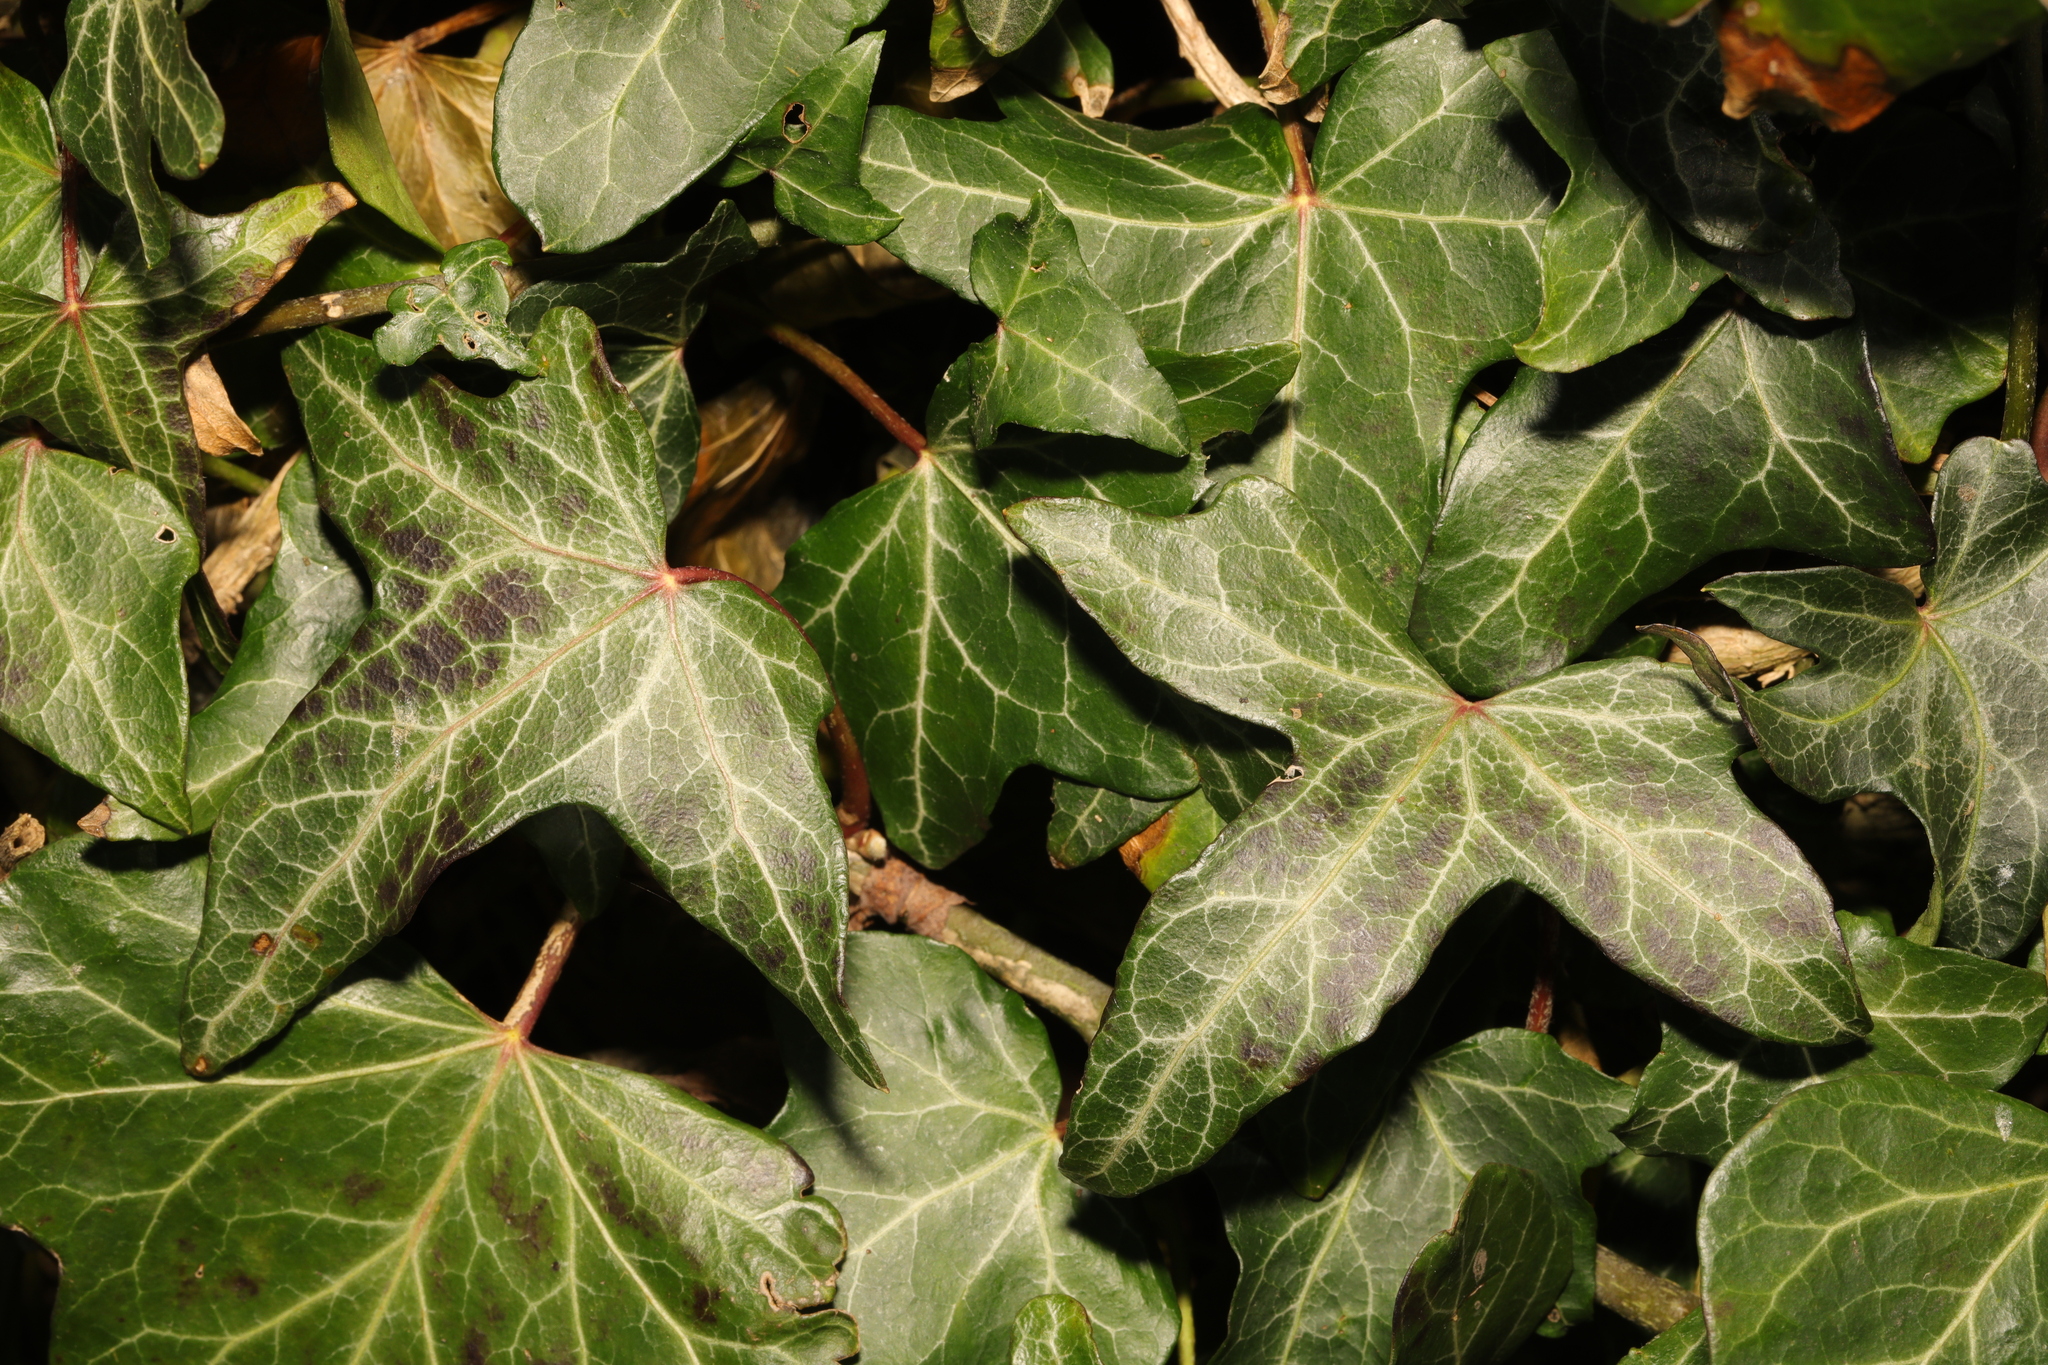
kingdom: Plantae
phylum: Tracheophyta
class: Magnoliopsida
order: Apiales
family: Araliaceae
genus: Hedera
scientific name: Hedera helix
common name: Ivy
